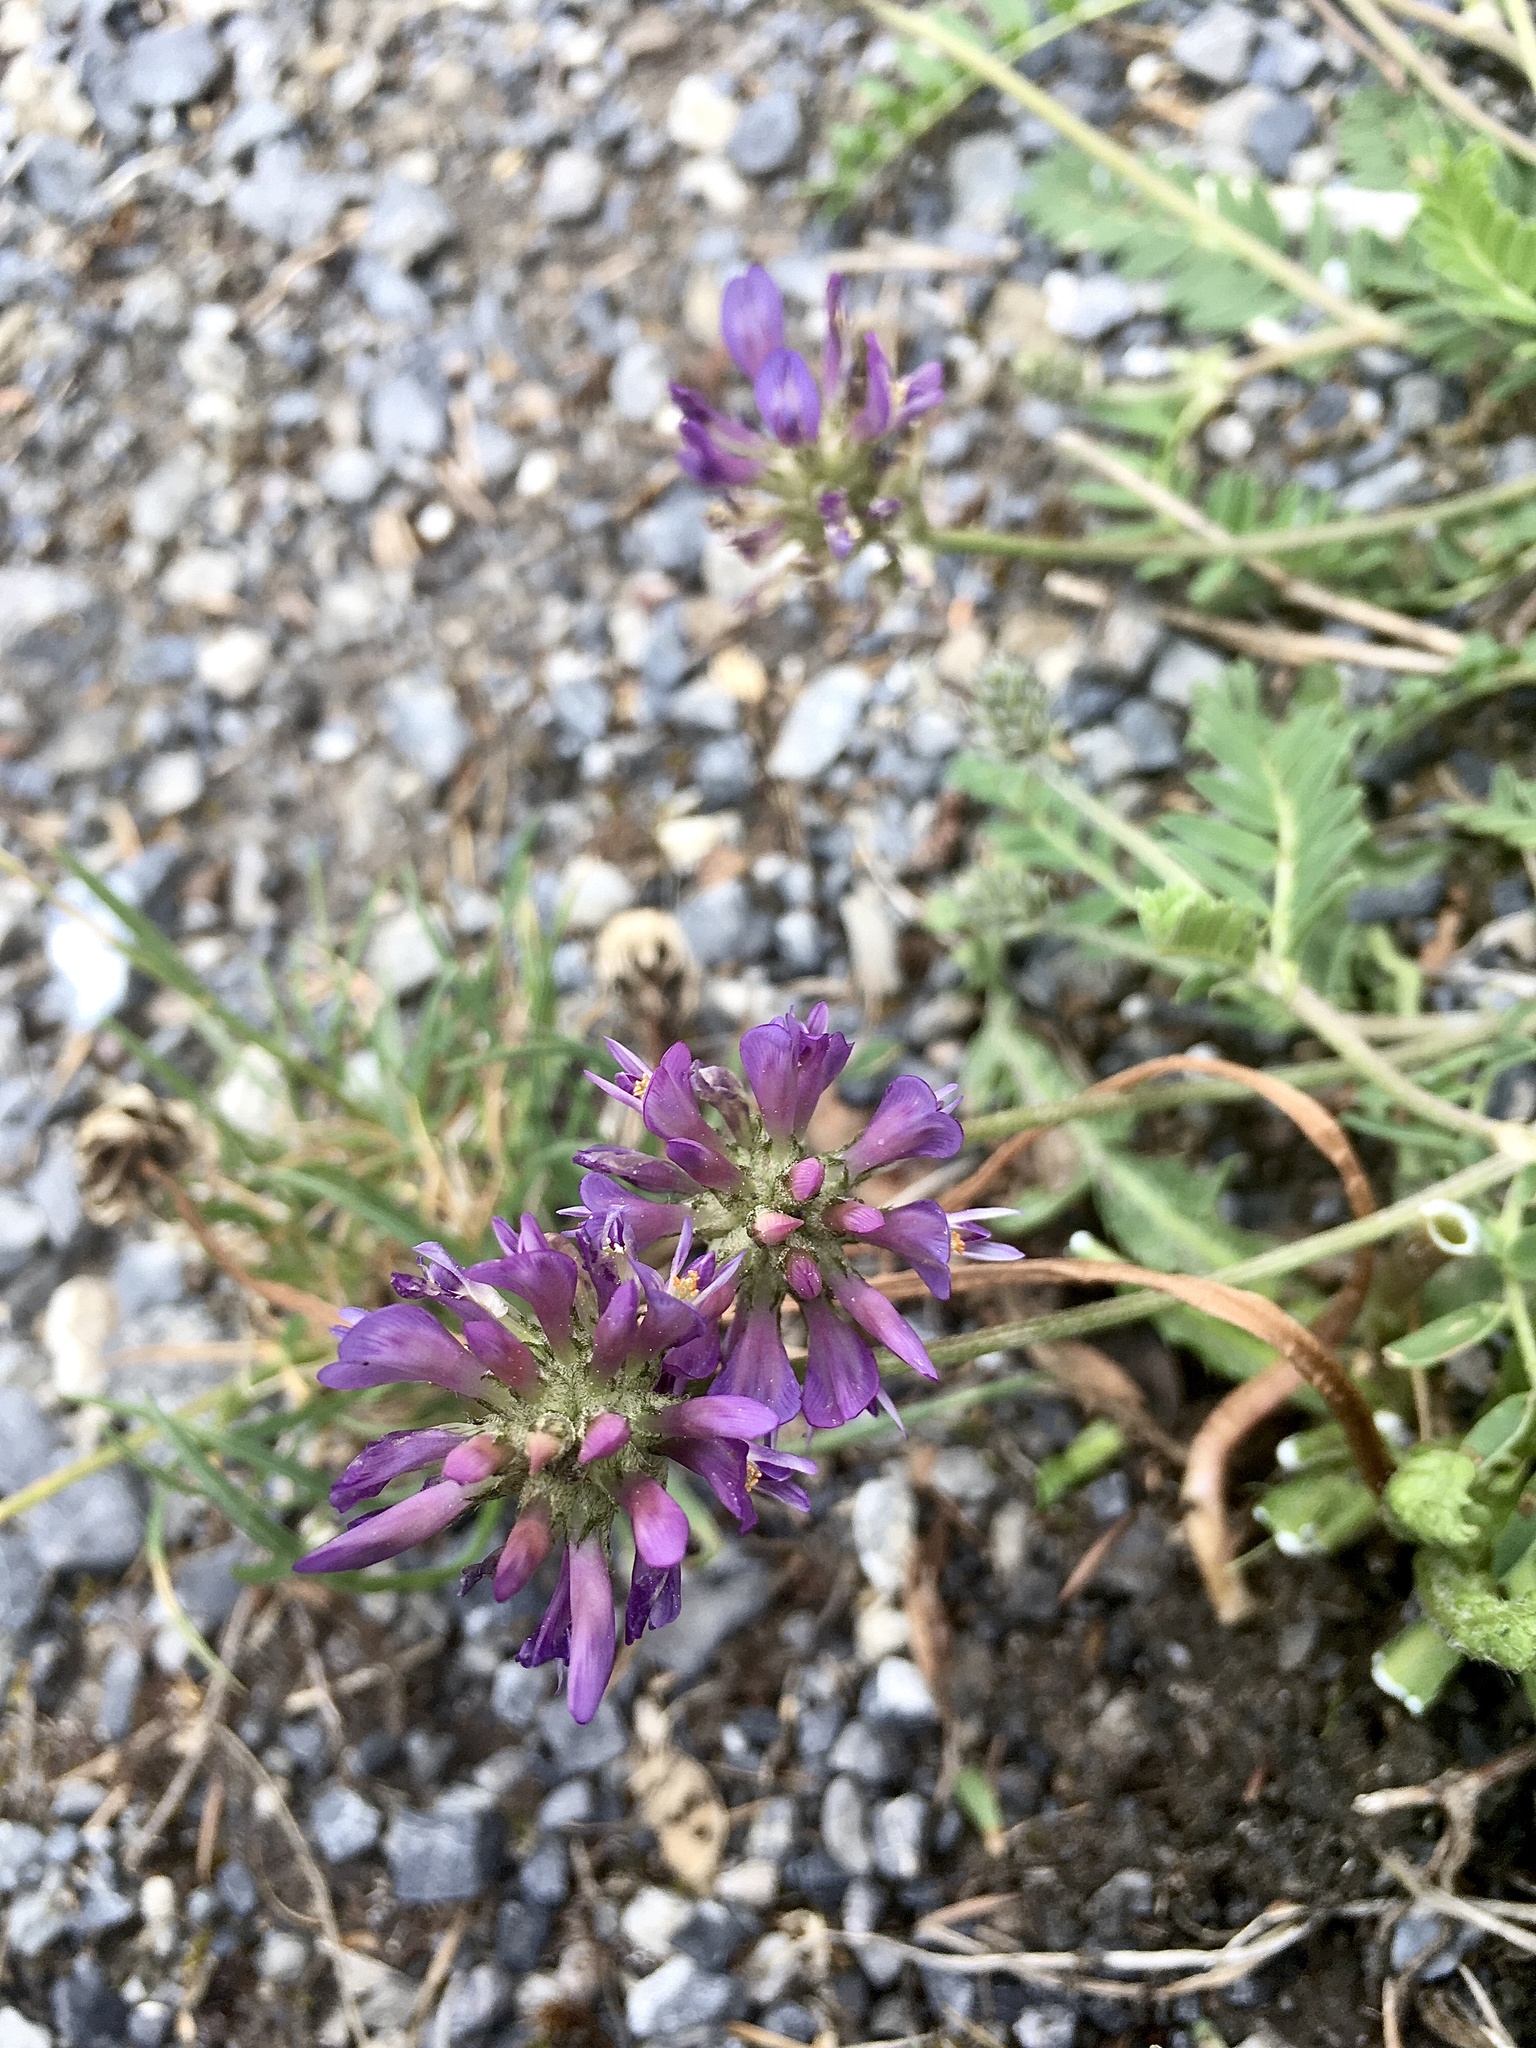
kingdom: Plantae
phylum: Tracheophyta
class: Magnoliopsida
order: Fabales
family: Fabaceae
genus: Astragalus
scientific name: Astragalus leontinus
